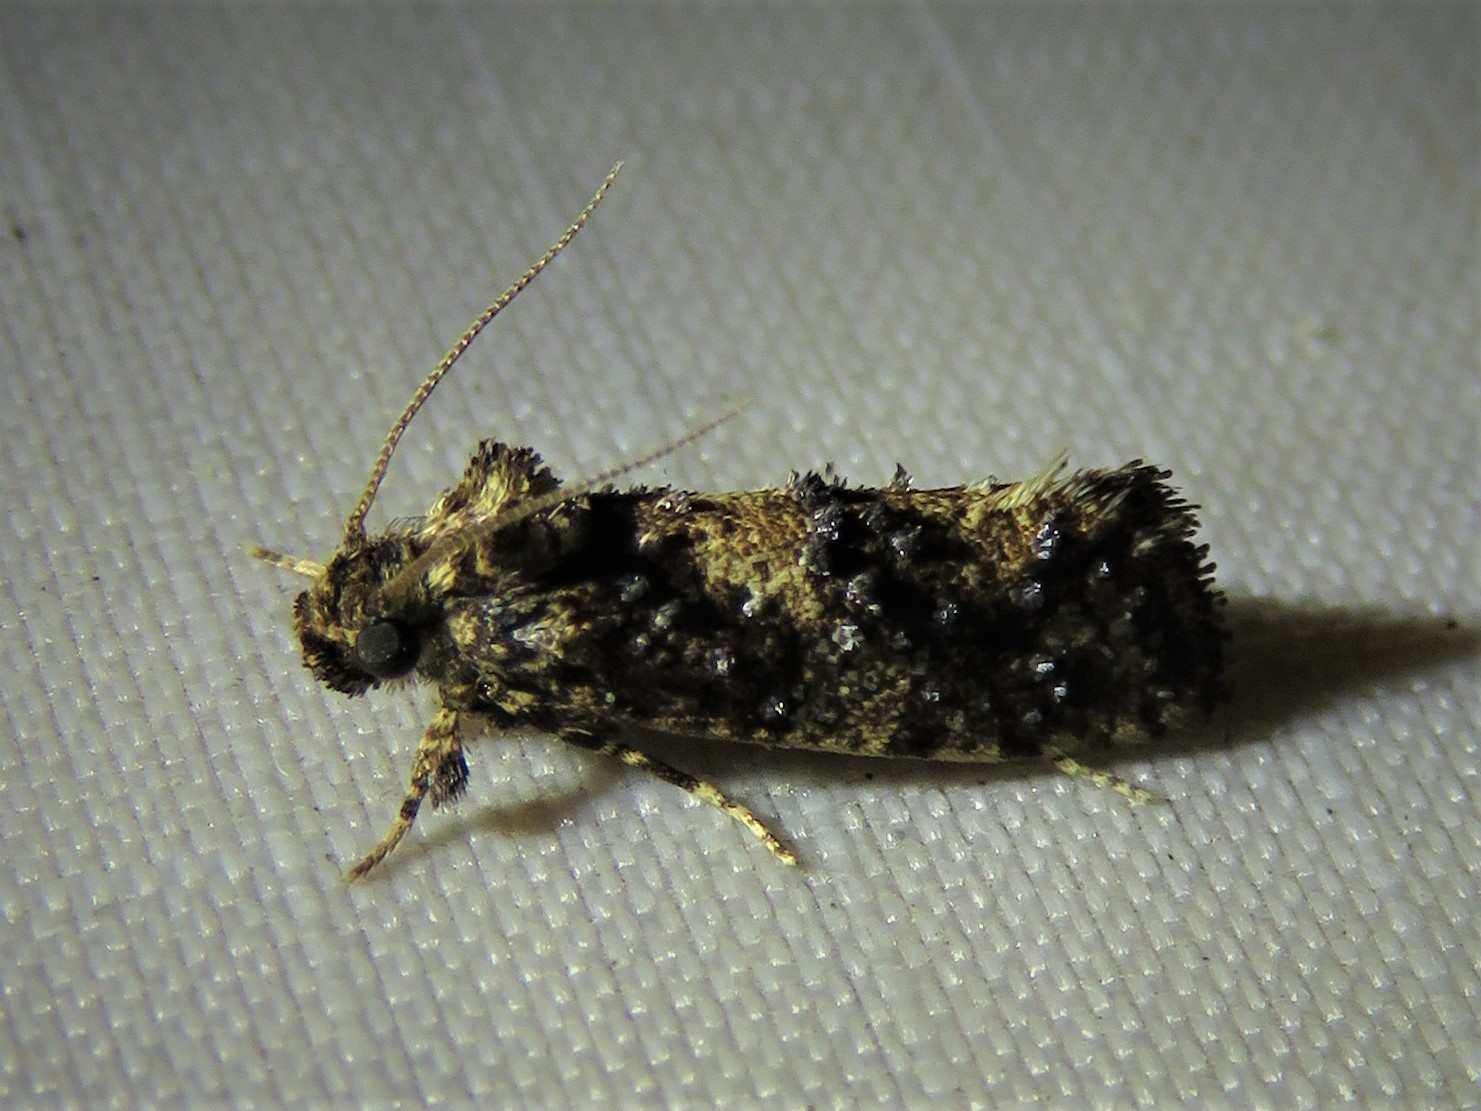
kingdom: Animalia
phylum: Arthropoda
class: Insecta
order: Lepidoptera
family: Tineidae
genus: Acrolophus
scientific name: Acrolophus cressoni
